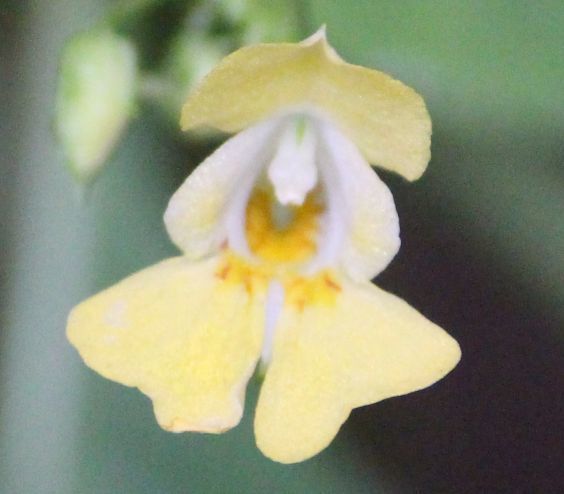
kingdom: Plantae
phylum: Tracheophyta
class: Magnoliopsida
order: Ericales
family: Balsaminaceae
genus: Impatiens
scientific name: Impatiens parviflora
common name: Small balsam
